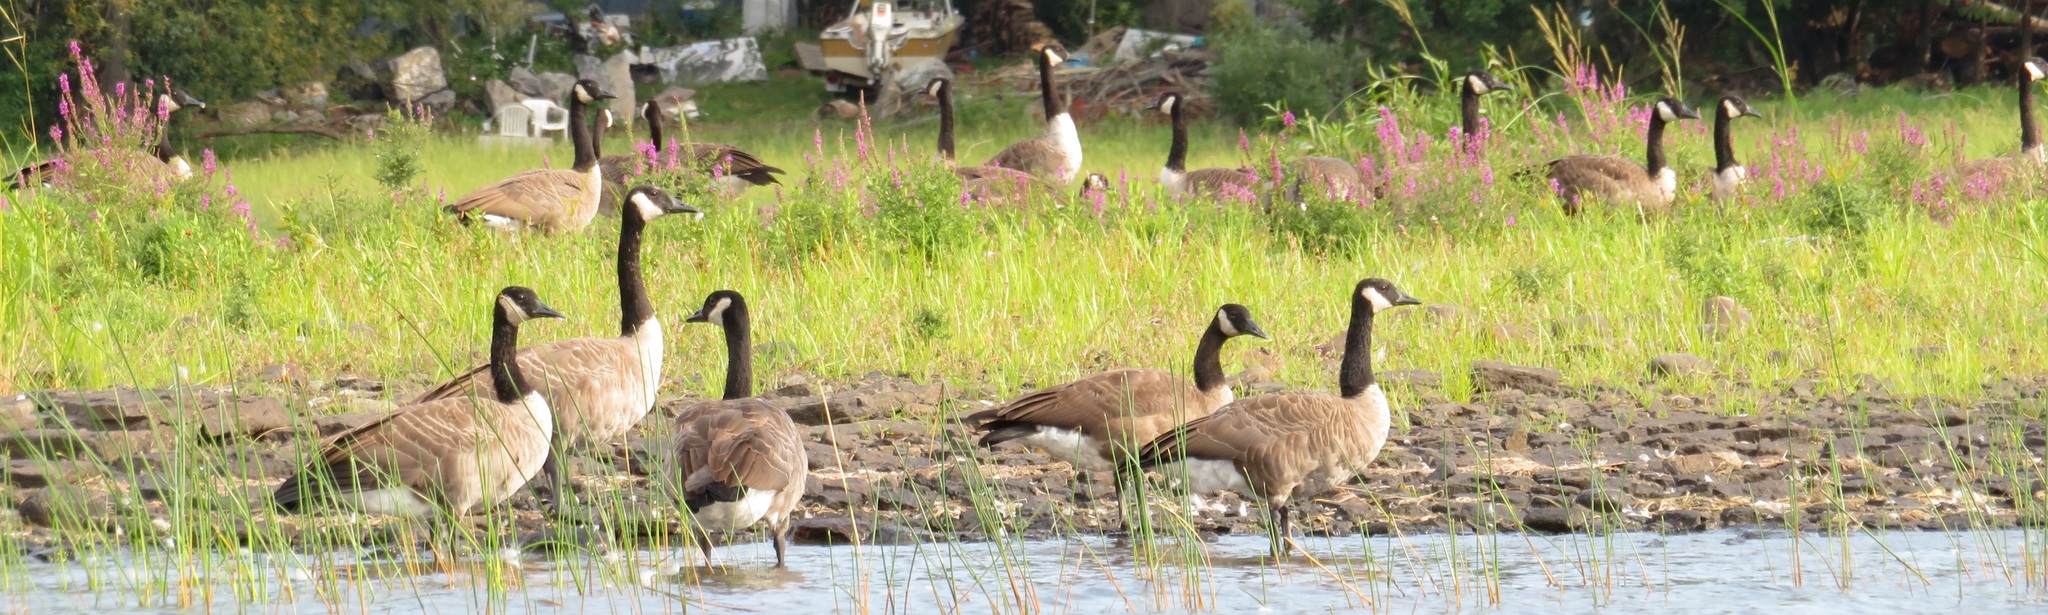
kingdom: Animalia
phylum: Chordata
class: Aves
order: Anseriformes
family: Anatidae
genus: Branta
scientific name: Branta canadensis
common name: Canada goose
